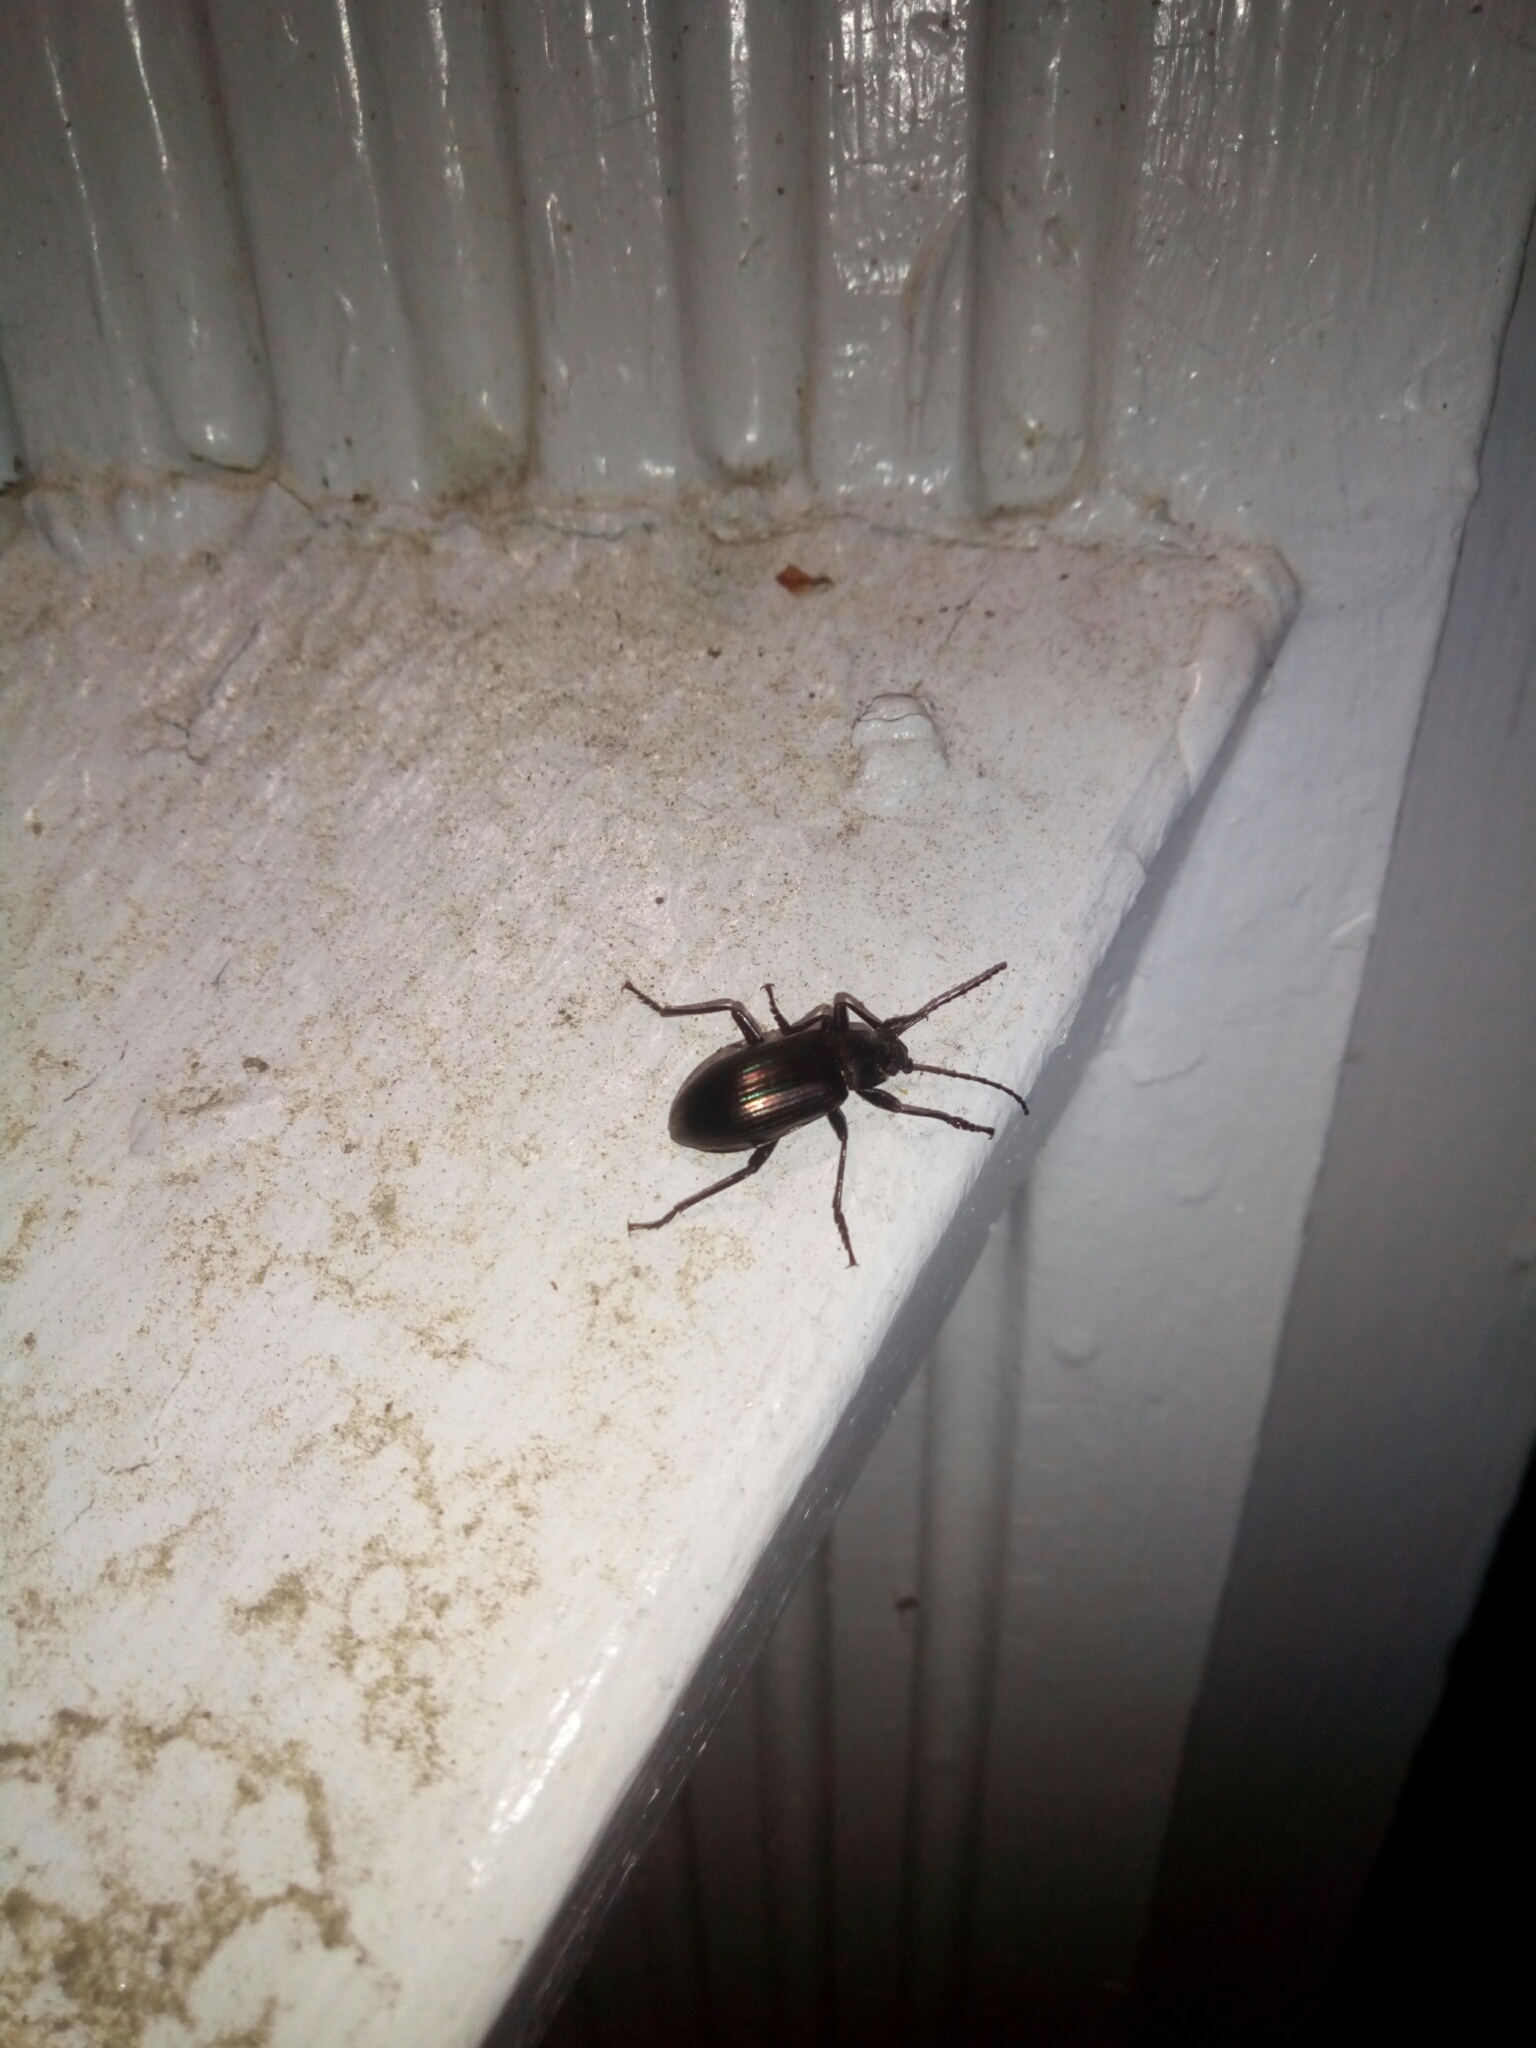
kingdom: Animalia
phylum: Arthropoda
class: Insecta
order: Coleoptera
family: Tenebrionidae
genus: Tarpela
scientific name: Tarpela micans
